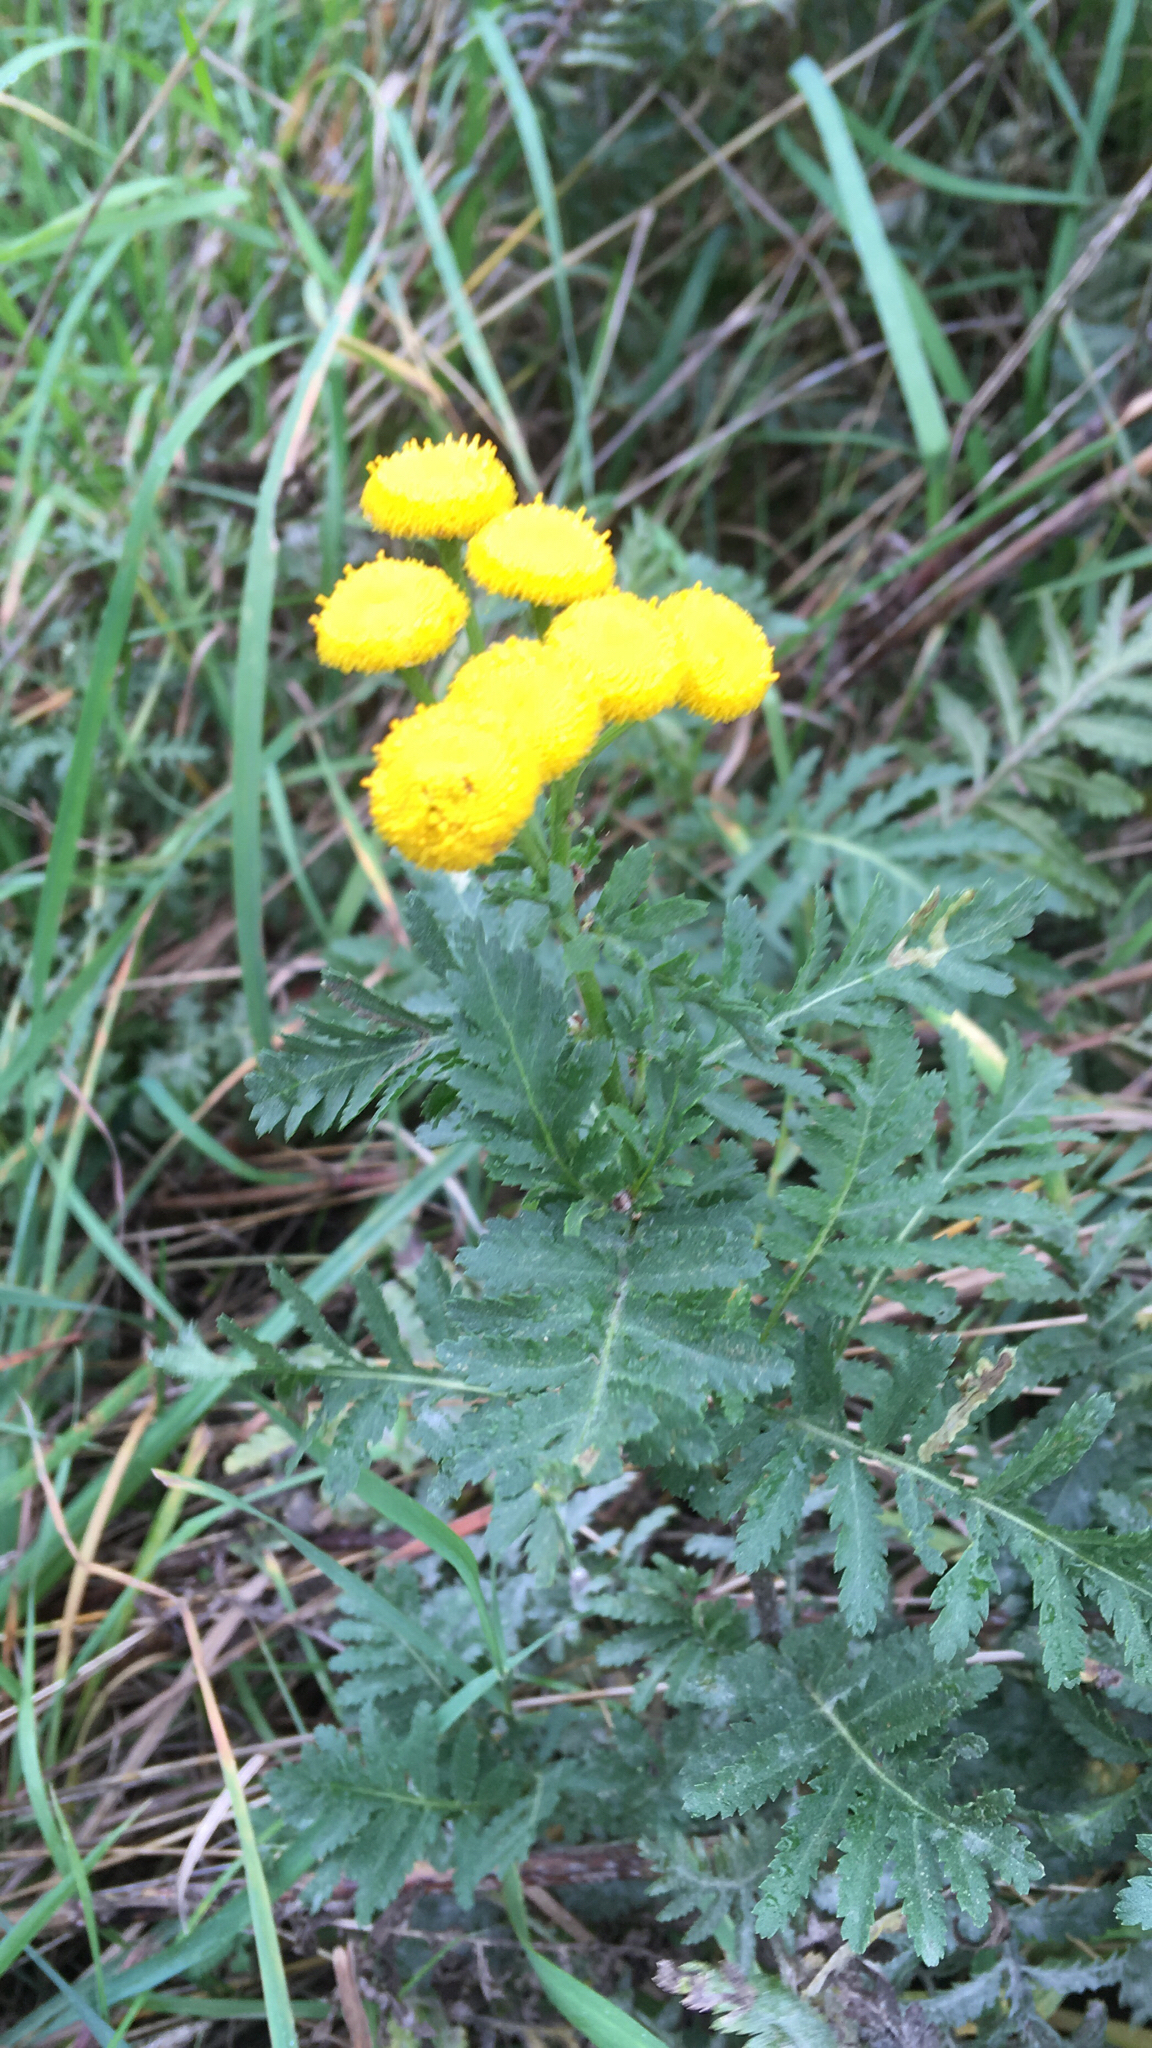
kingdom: Plantae
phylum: Tracheophyta
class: Magnoliopsida
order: Asterales
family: Asteraceae
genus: Tanacetum
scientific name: Tanacetum vulgare
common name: Common tansy
